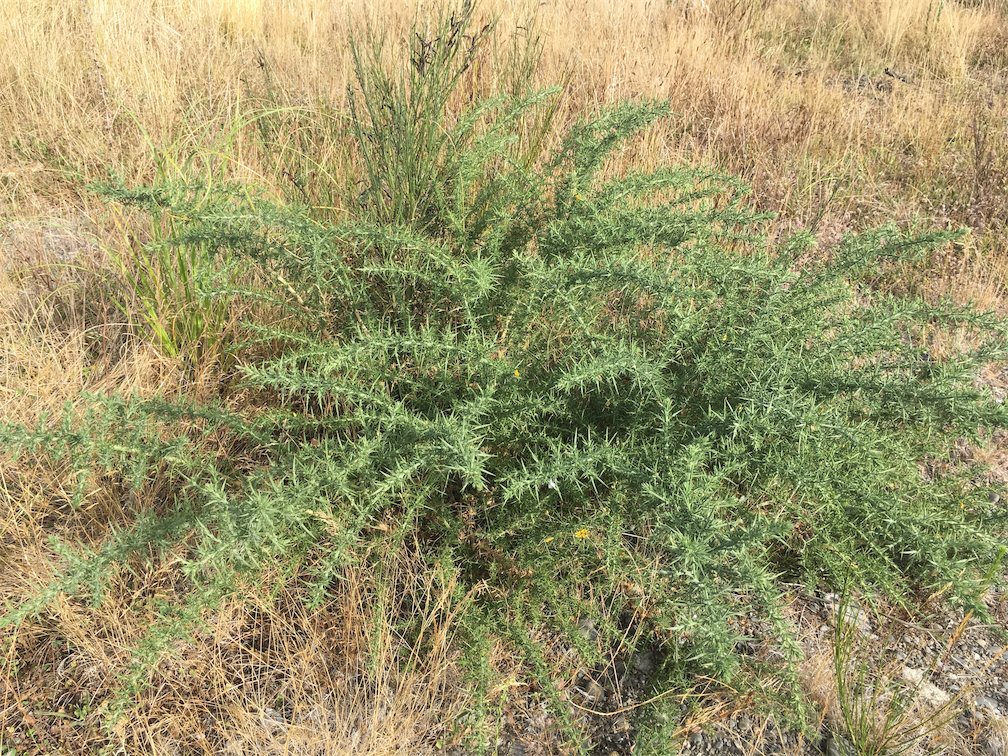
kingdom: Plantae
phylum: Tracheophyta
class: Magnoliopsida
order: Fabales
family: Fabaceae
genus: Ulex
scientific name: Ulex europaeus
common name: Common gorse
